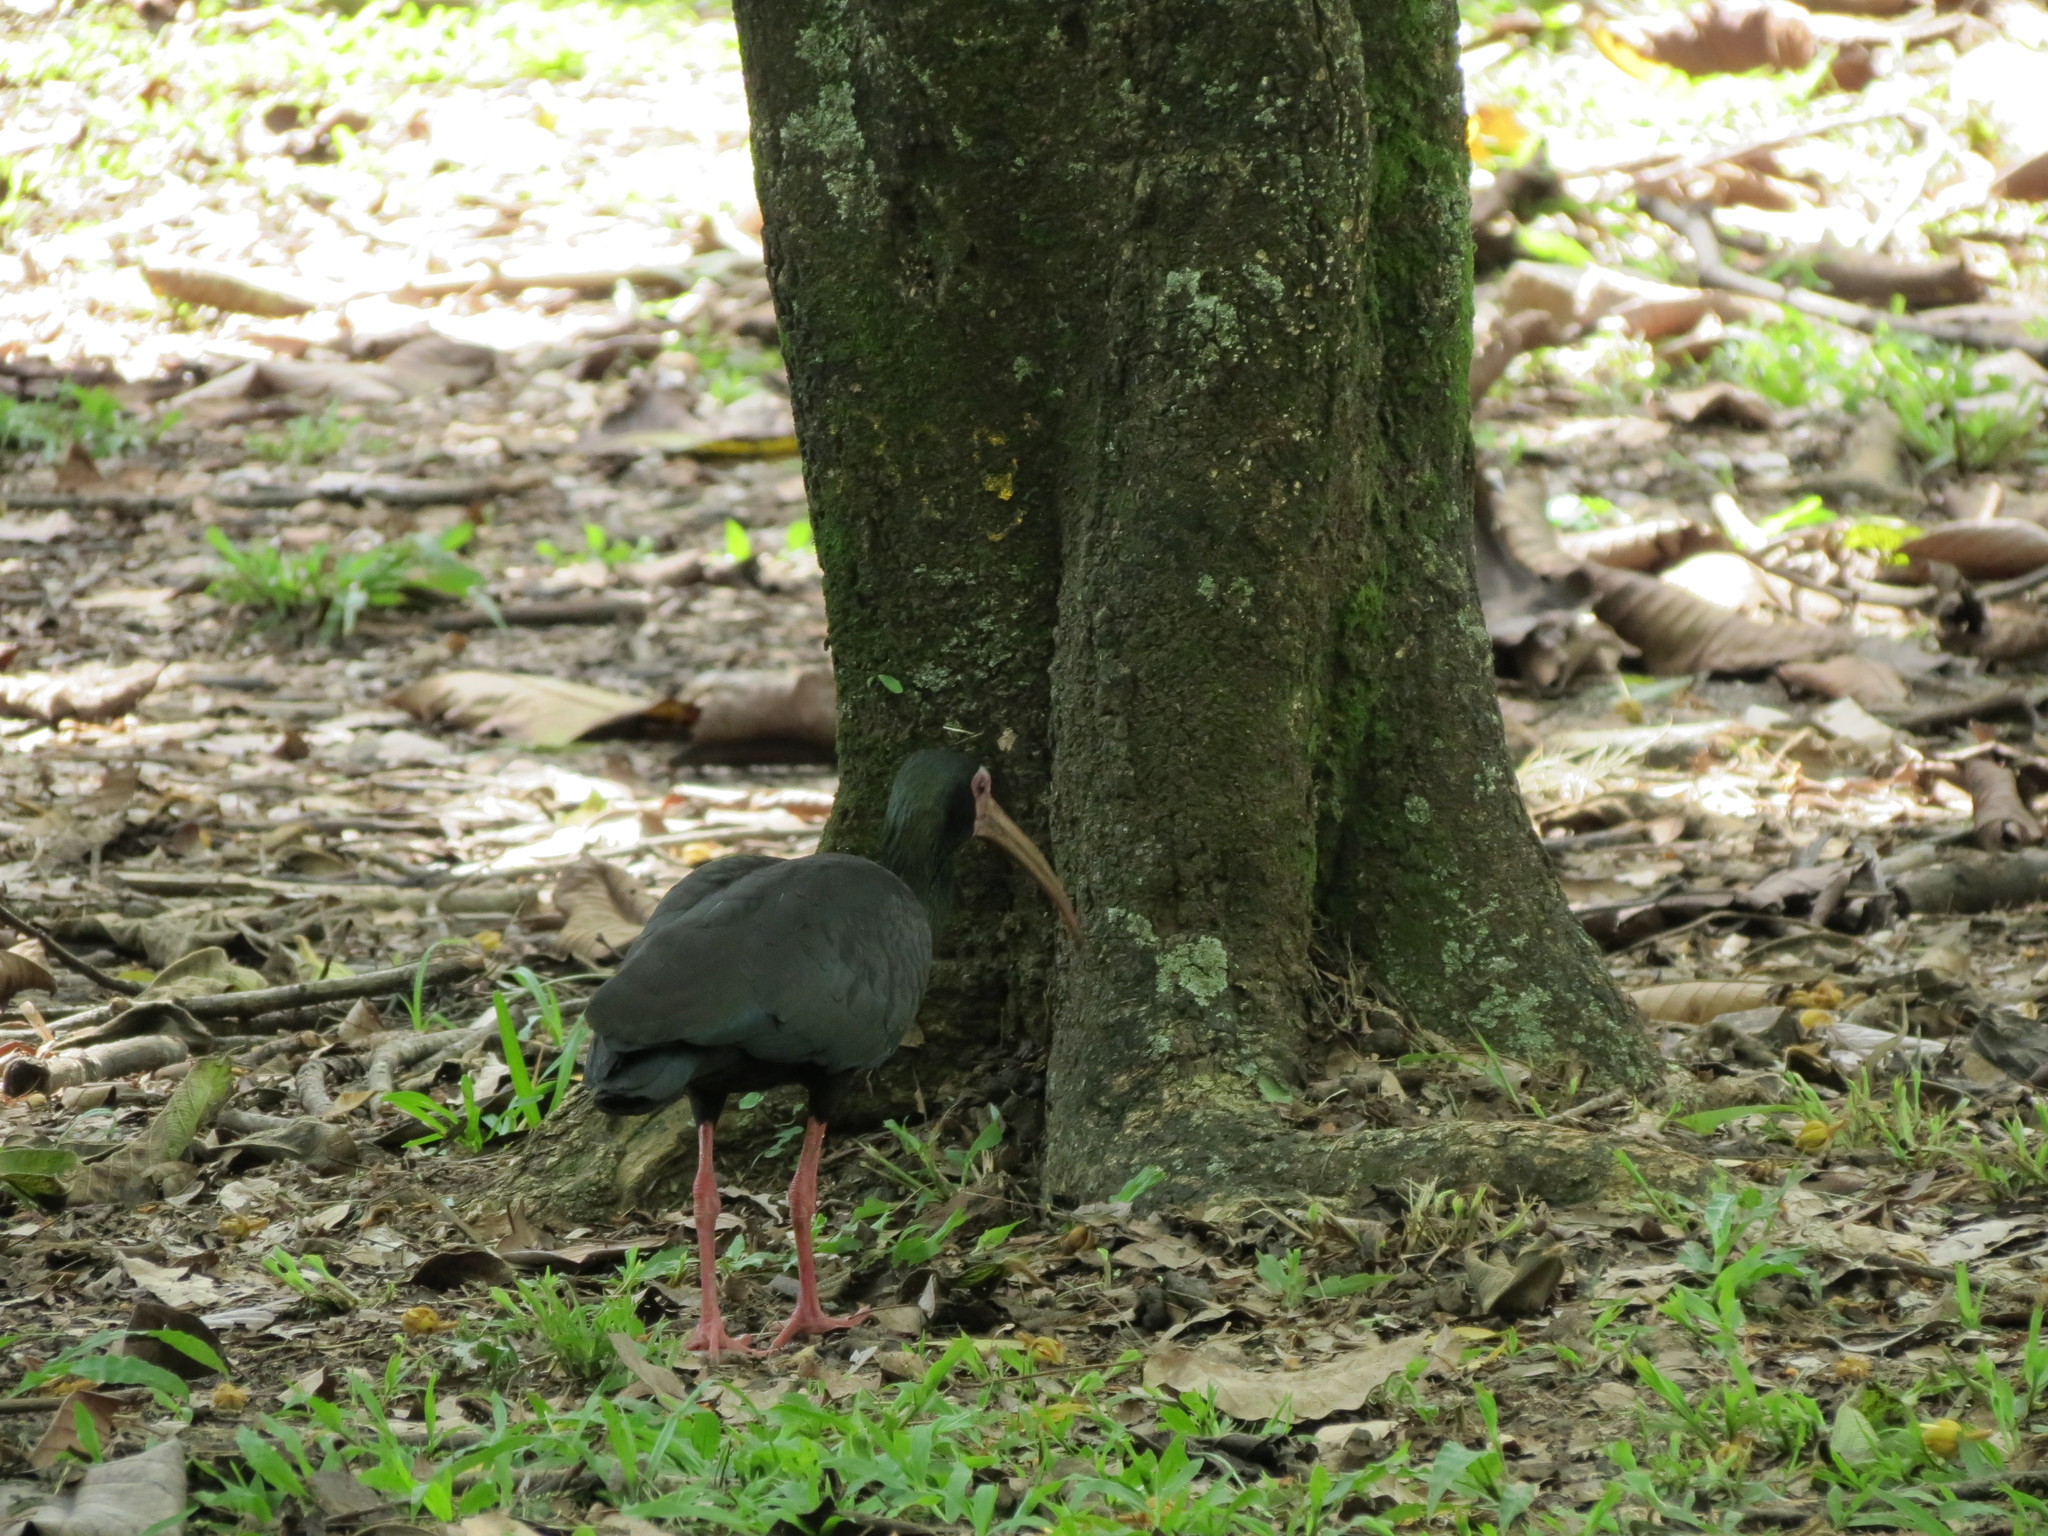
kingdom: Animalia
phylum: Chordata
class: Aves
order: Pelecaniformes
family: Threskiornithidae
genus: Phimosus
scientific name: Phimosus infuscatus
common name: Bare-faced ibis
